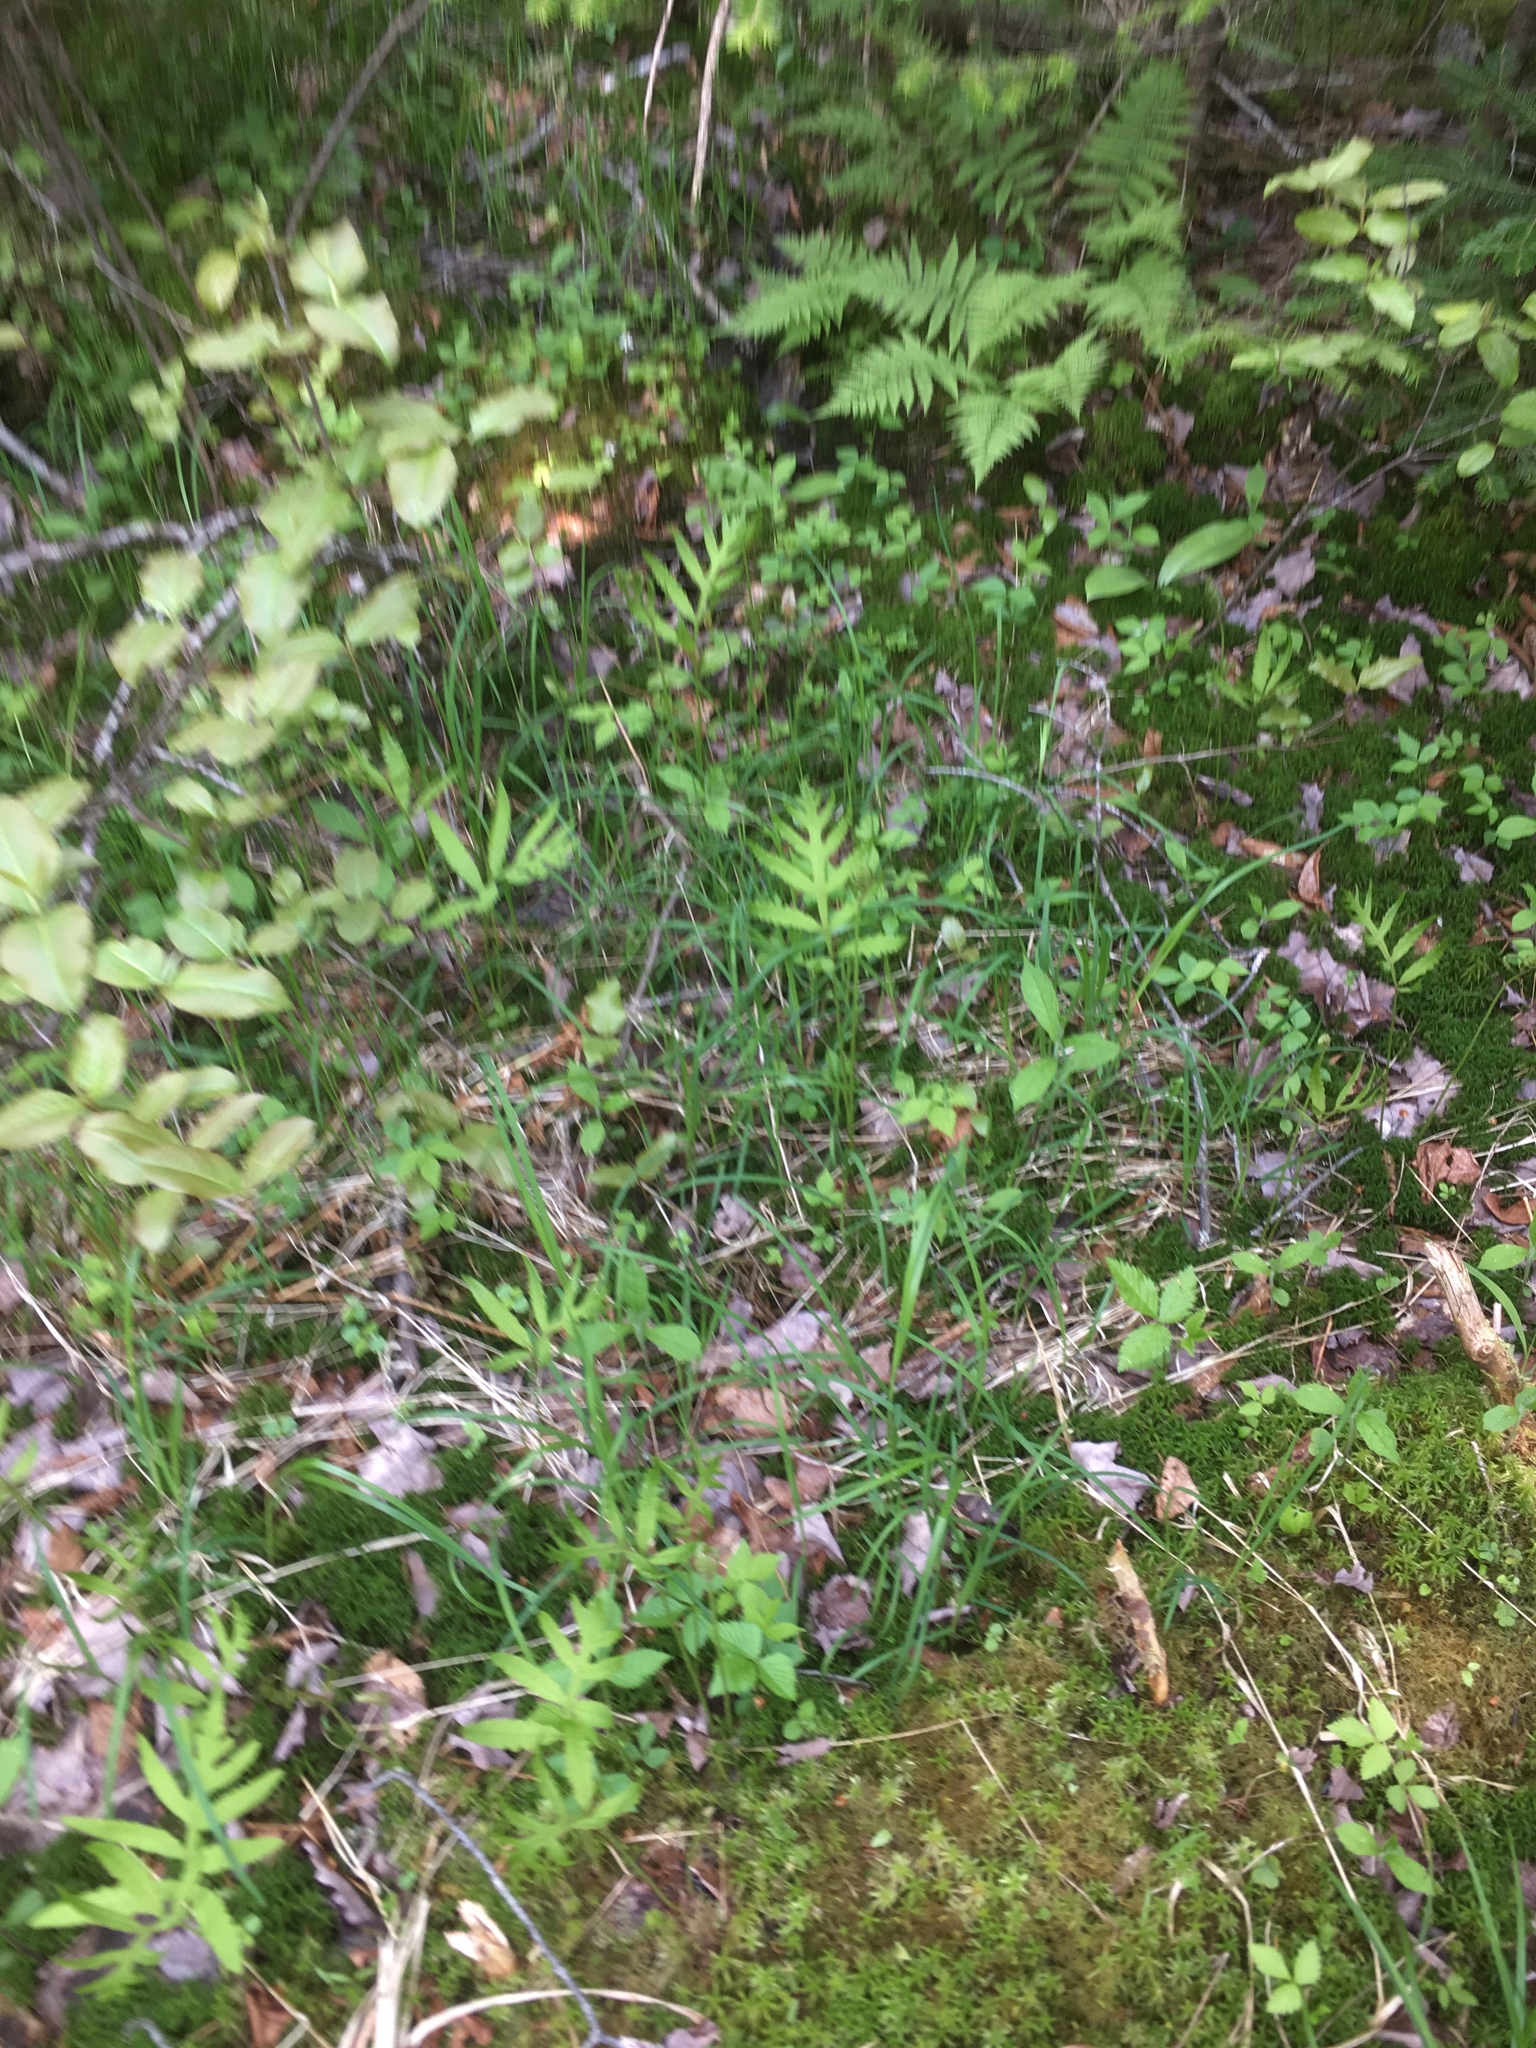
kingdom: Plantae
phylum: Tracheophyta
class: Polypodiopsida
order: Polypodiales
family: Onocleaceae
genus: Onoclea
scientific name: Onoclea sensibilis
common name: Sensitive fern
